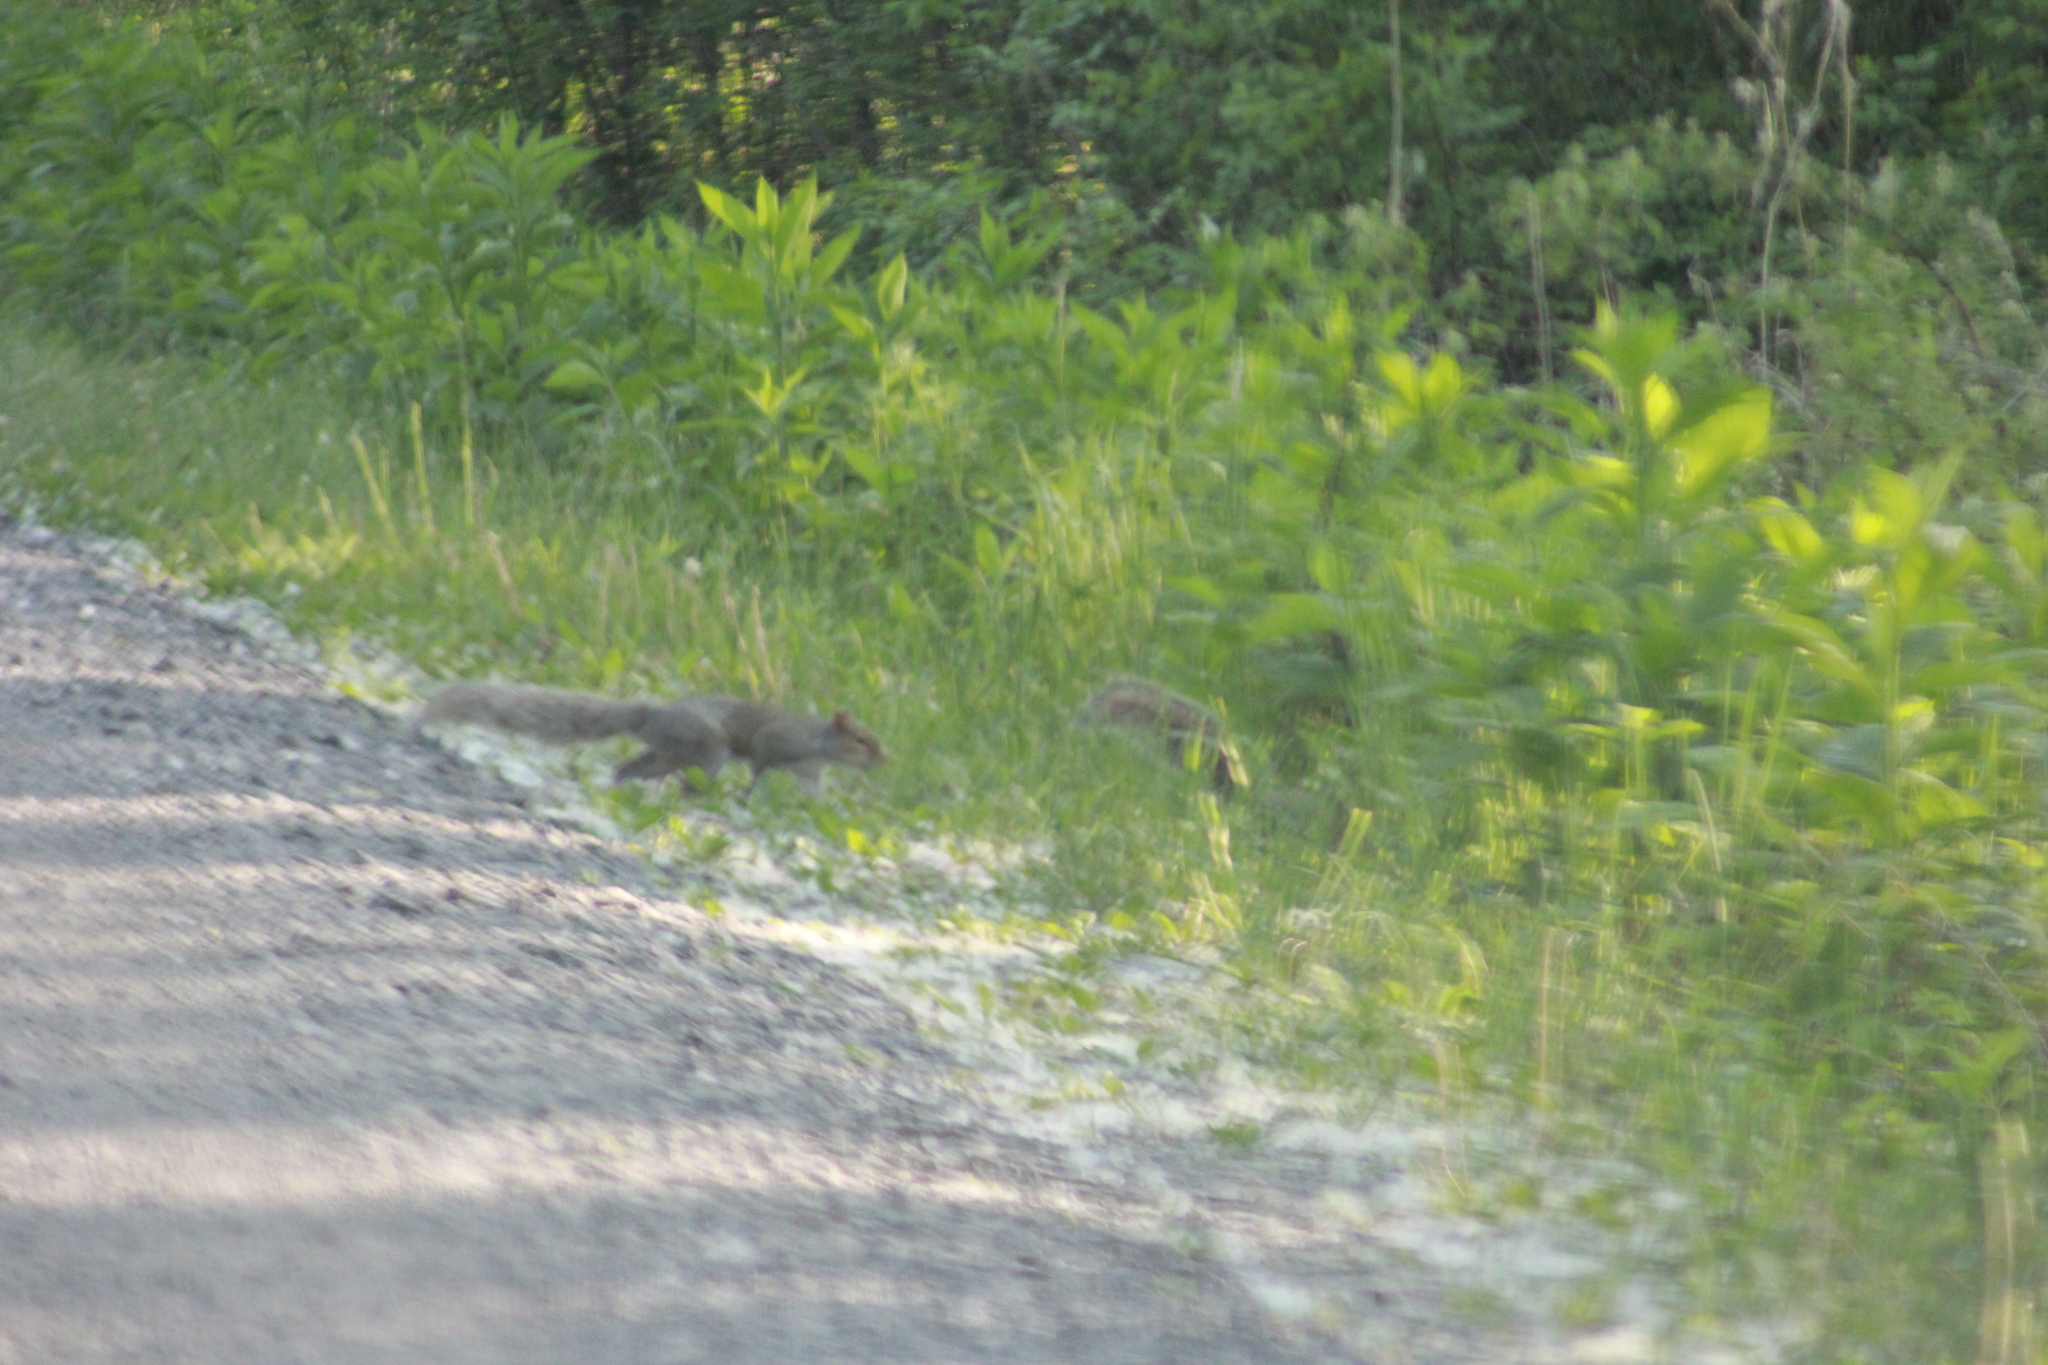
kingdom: Animalia
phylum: Chordata
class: Mammalia
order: Rodentia
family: Sciuridae
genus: Sciurus
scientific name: Sciurus carolinensis
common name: Eastern gray squirrel
